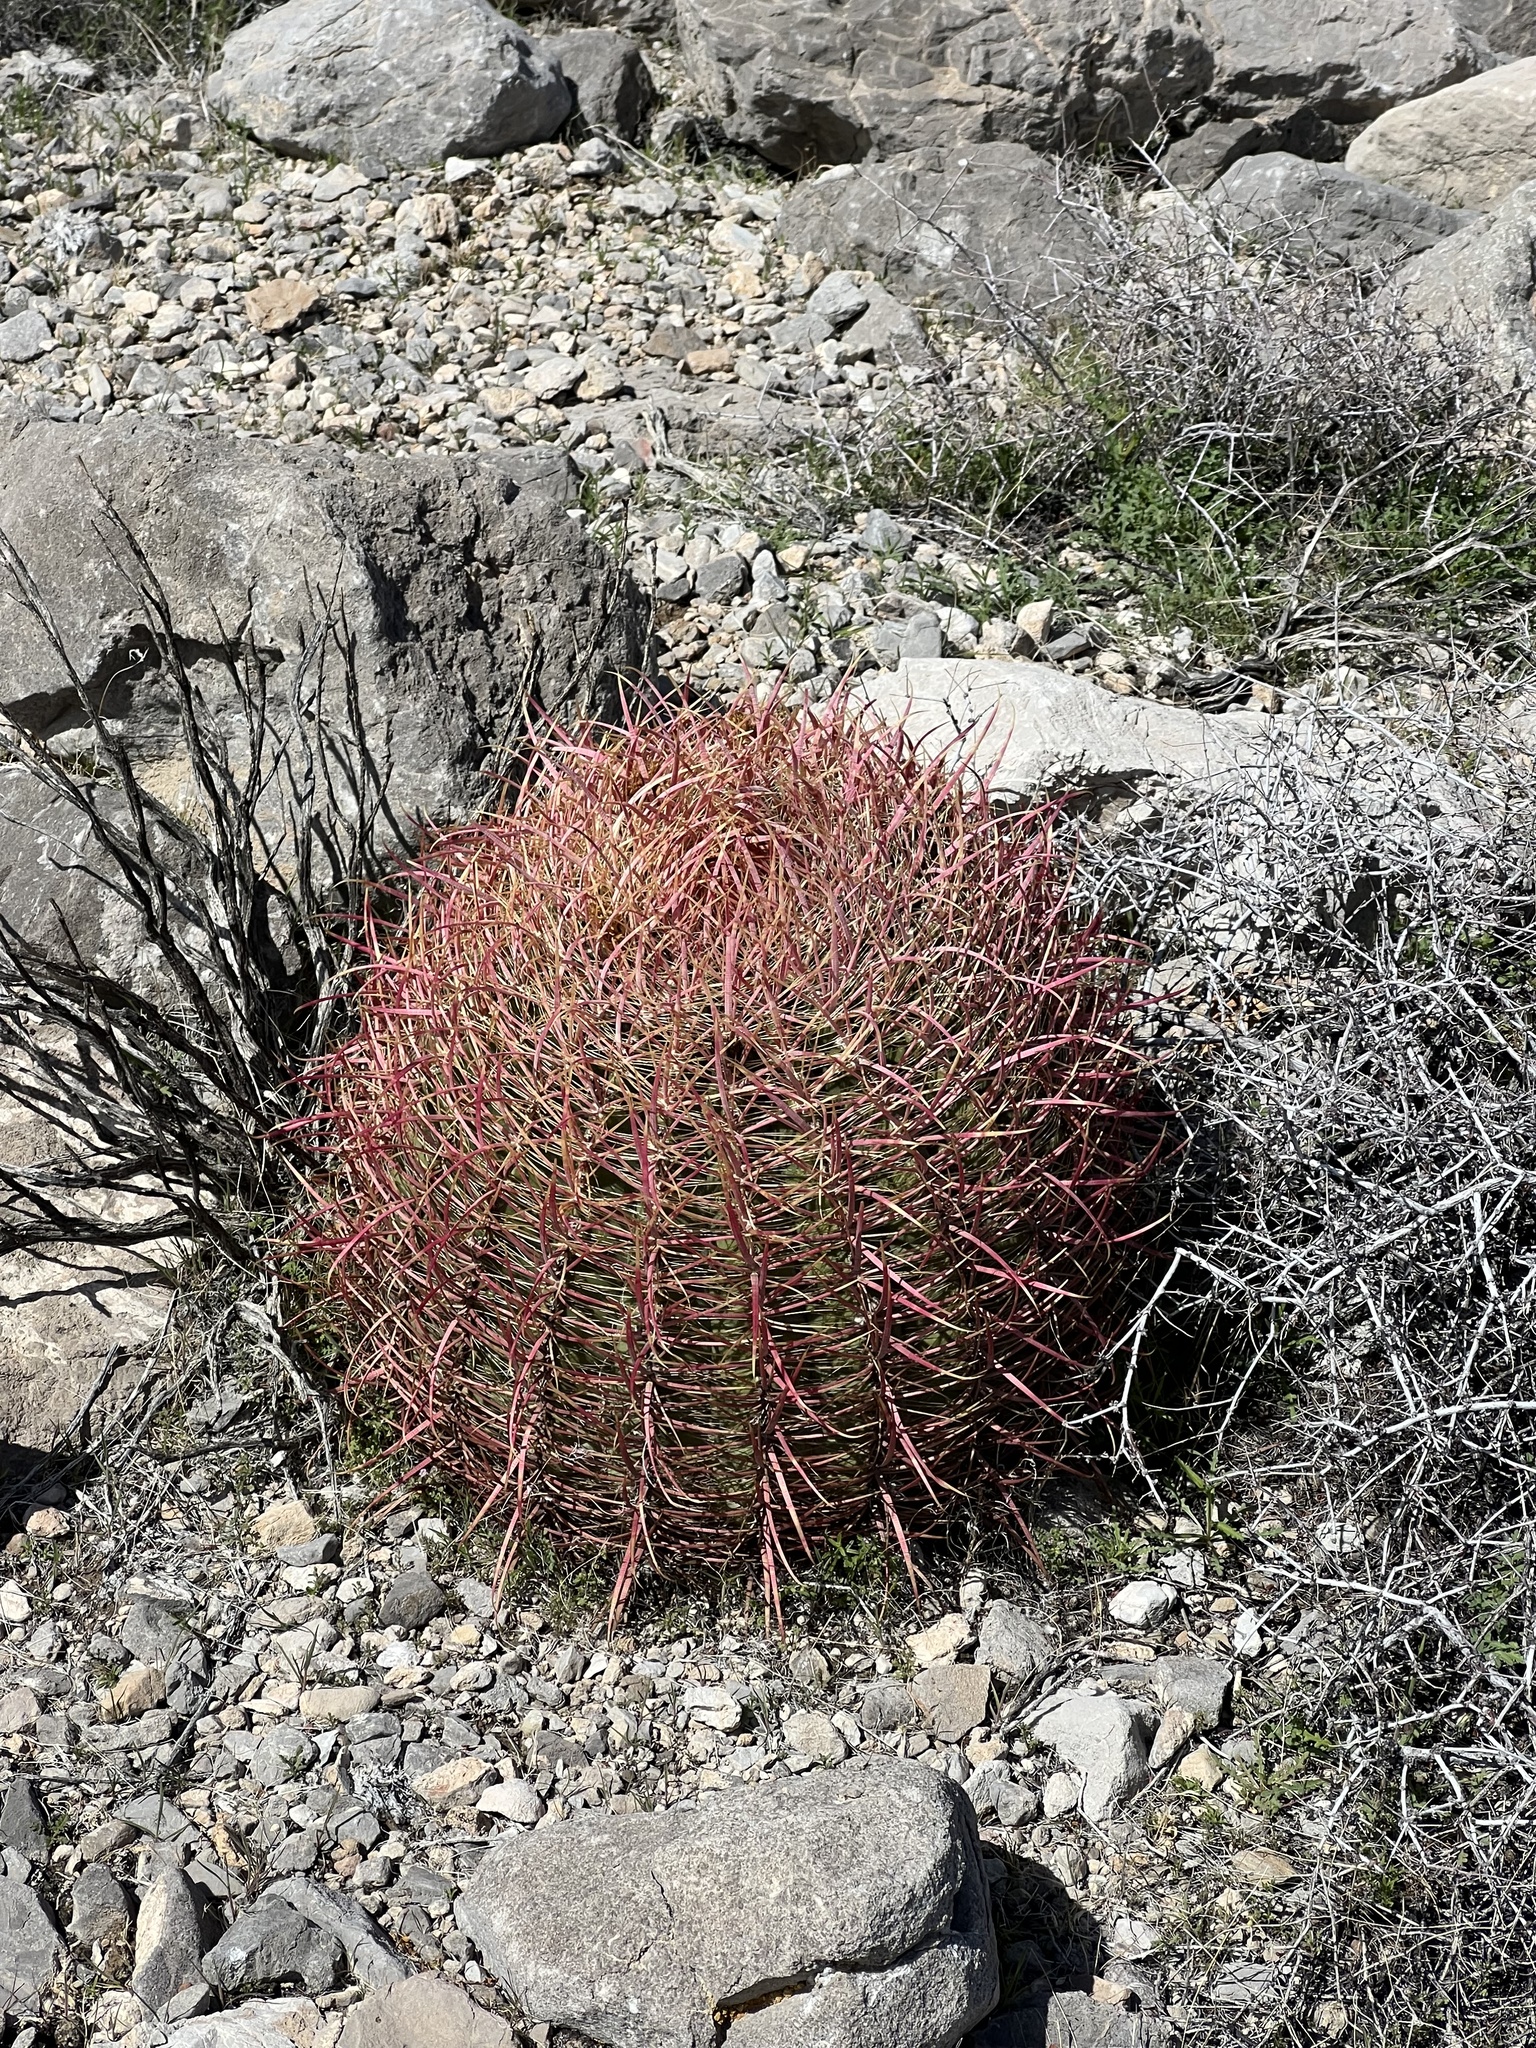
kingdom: Plantae
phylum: Tracheophyta
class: Magnoliopsida
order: Caryophyllales
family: Cactaceae
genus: Ferocactus
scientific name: Ferocactus cylindraceus
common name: California barrel cactus
